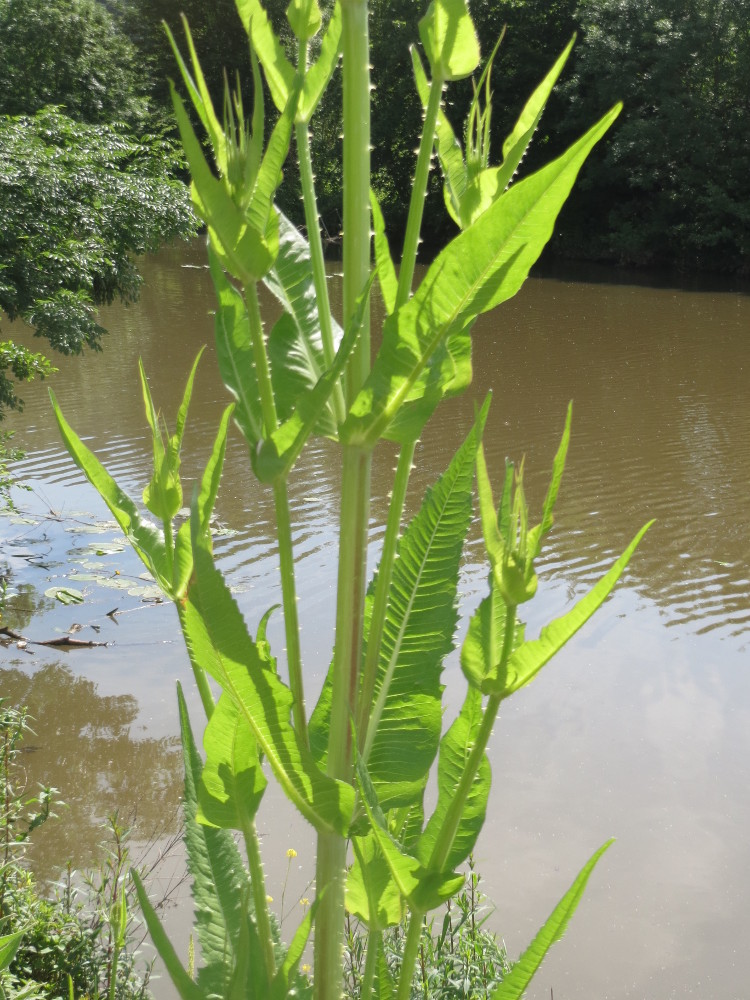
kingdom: Plantae
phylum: Tracheophyta
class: Magnoliopsida
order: Dipsacales
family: Caprifoliaceae
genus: Dipsacus
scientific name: Dipsacus fullonum
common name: Teasel
